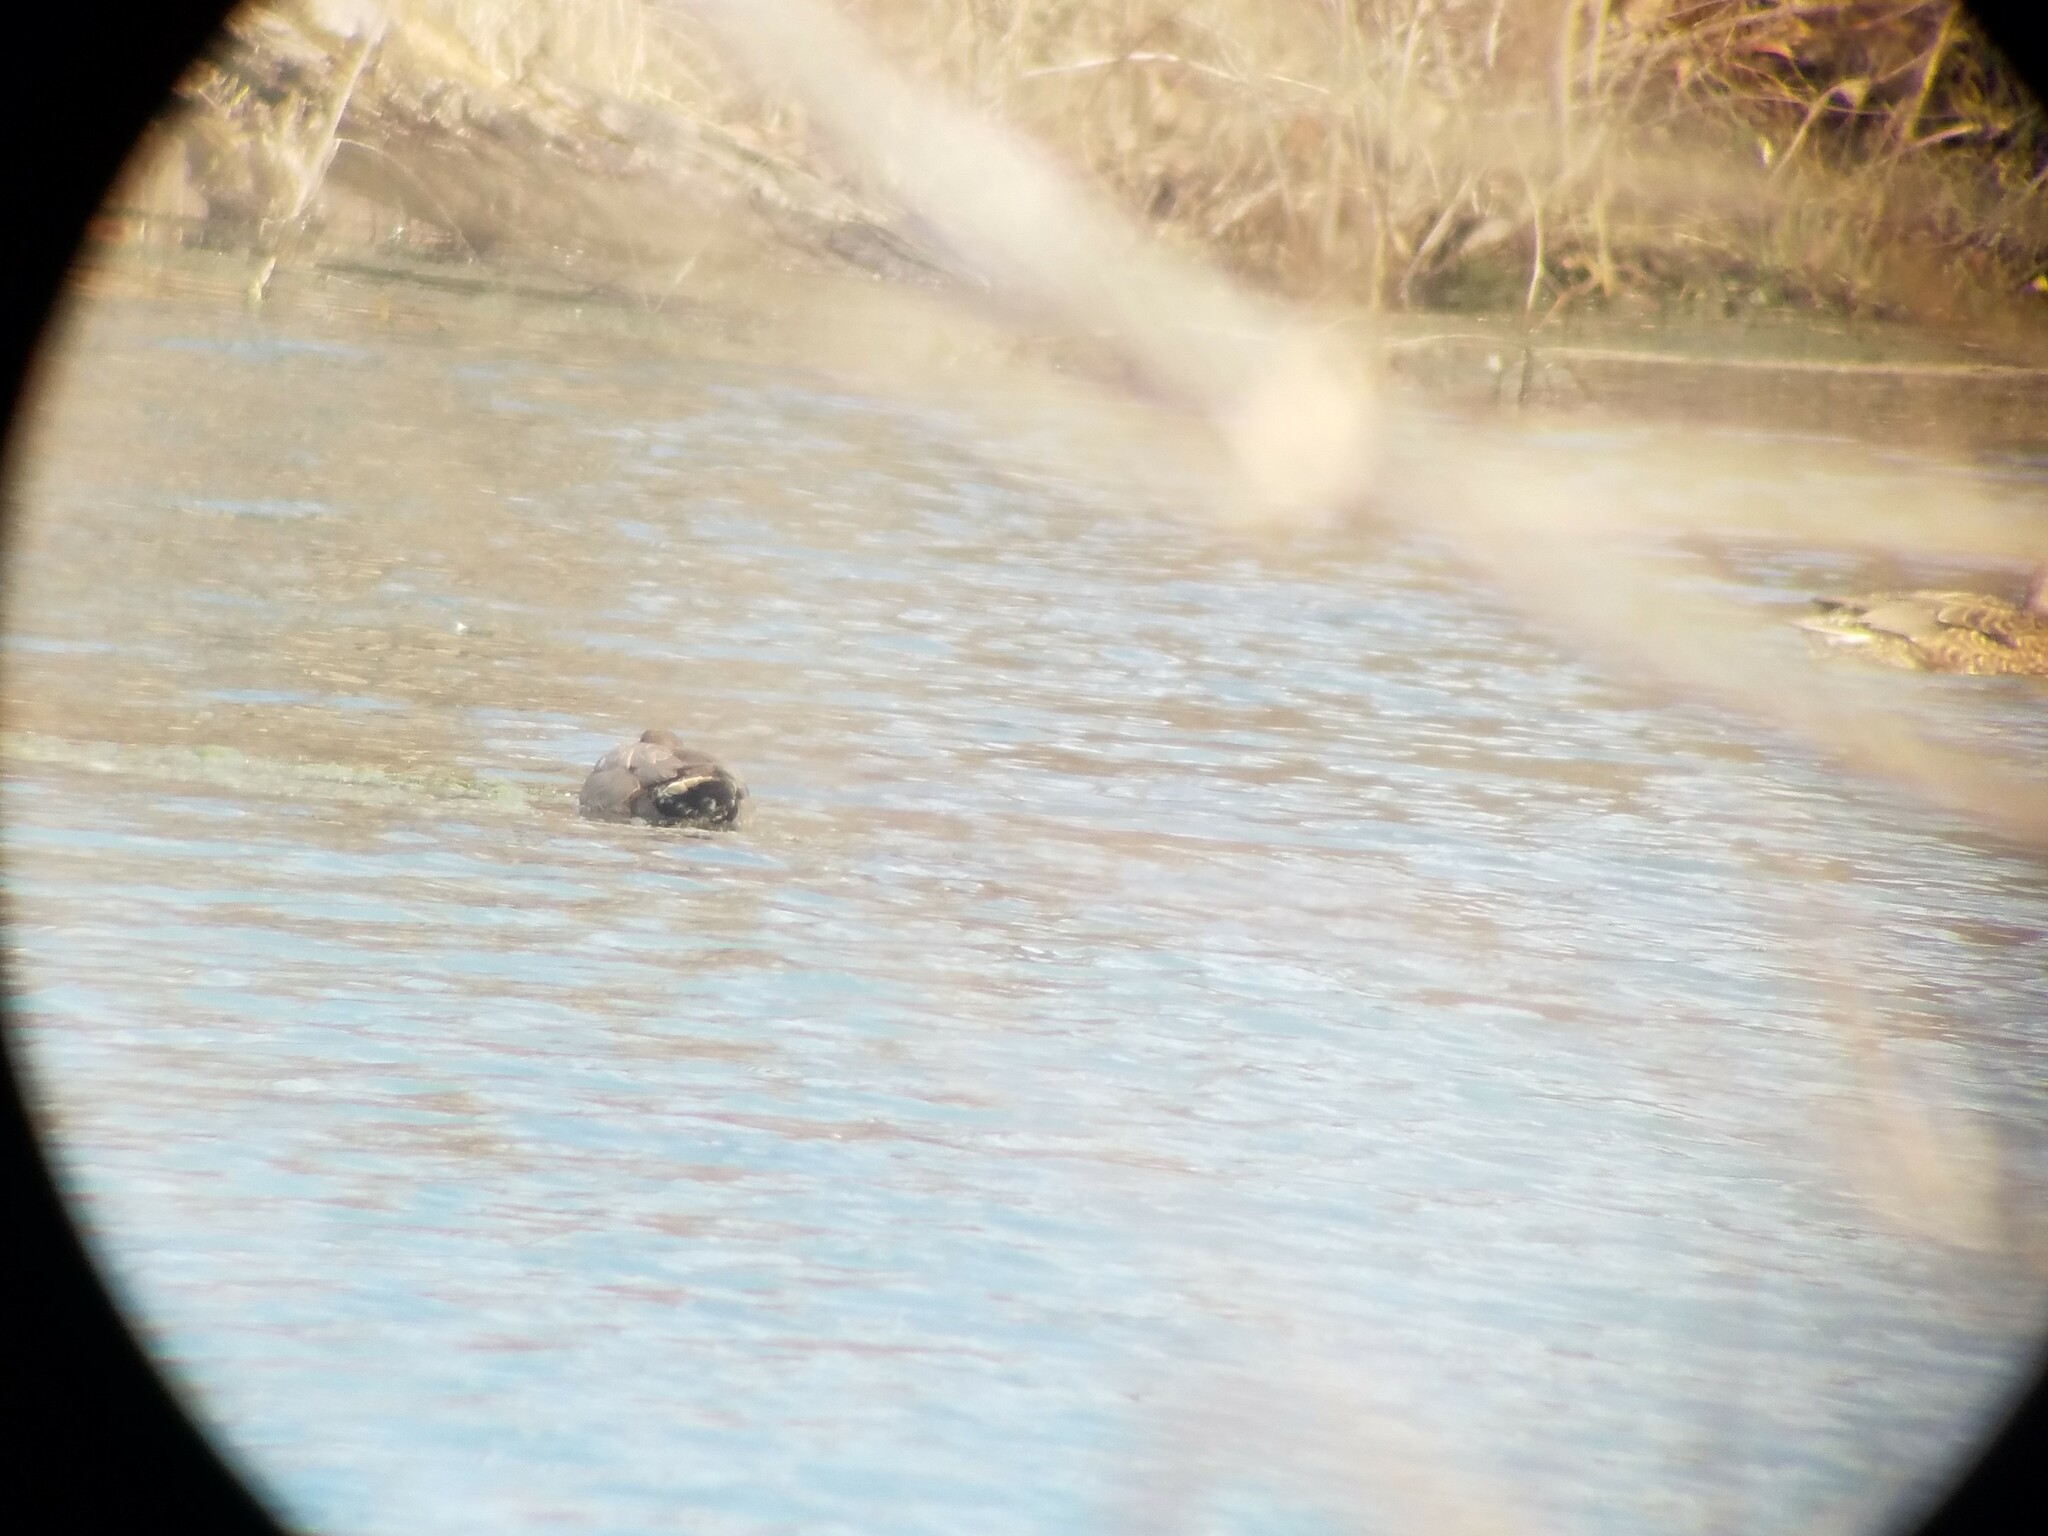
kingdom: Animalia
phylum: Chordata
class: Aves
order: Anseriformes
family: Anatidae
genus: Anas
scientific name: Anas platyrhynchos
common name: Mallard
